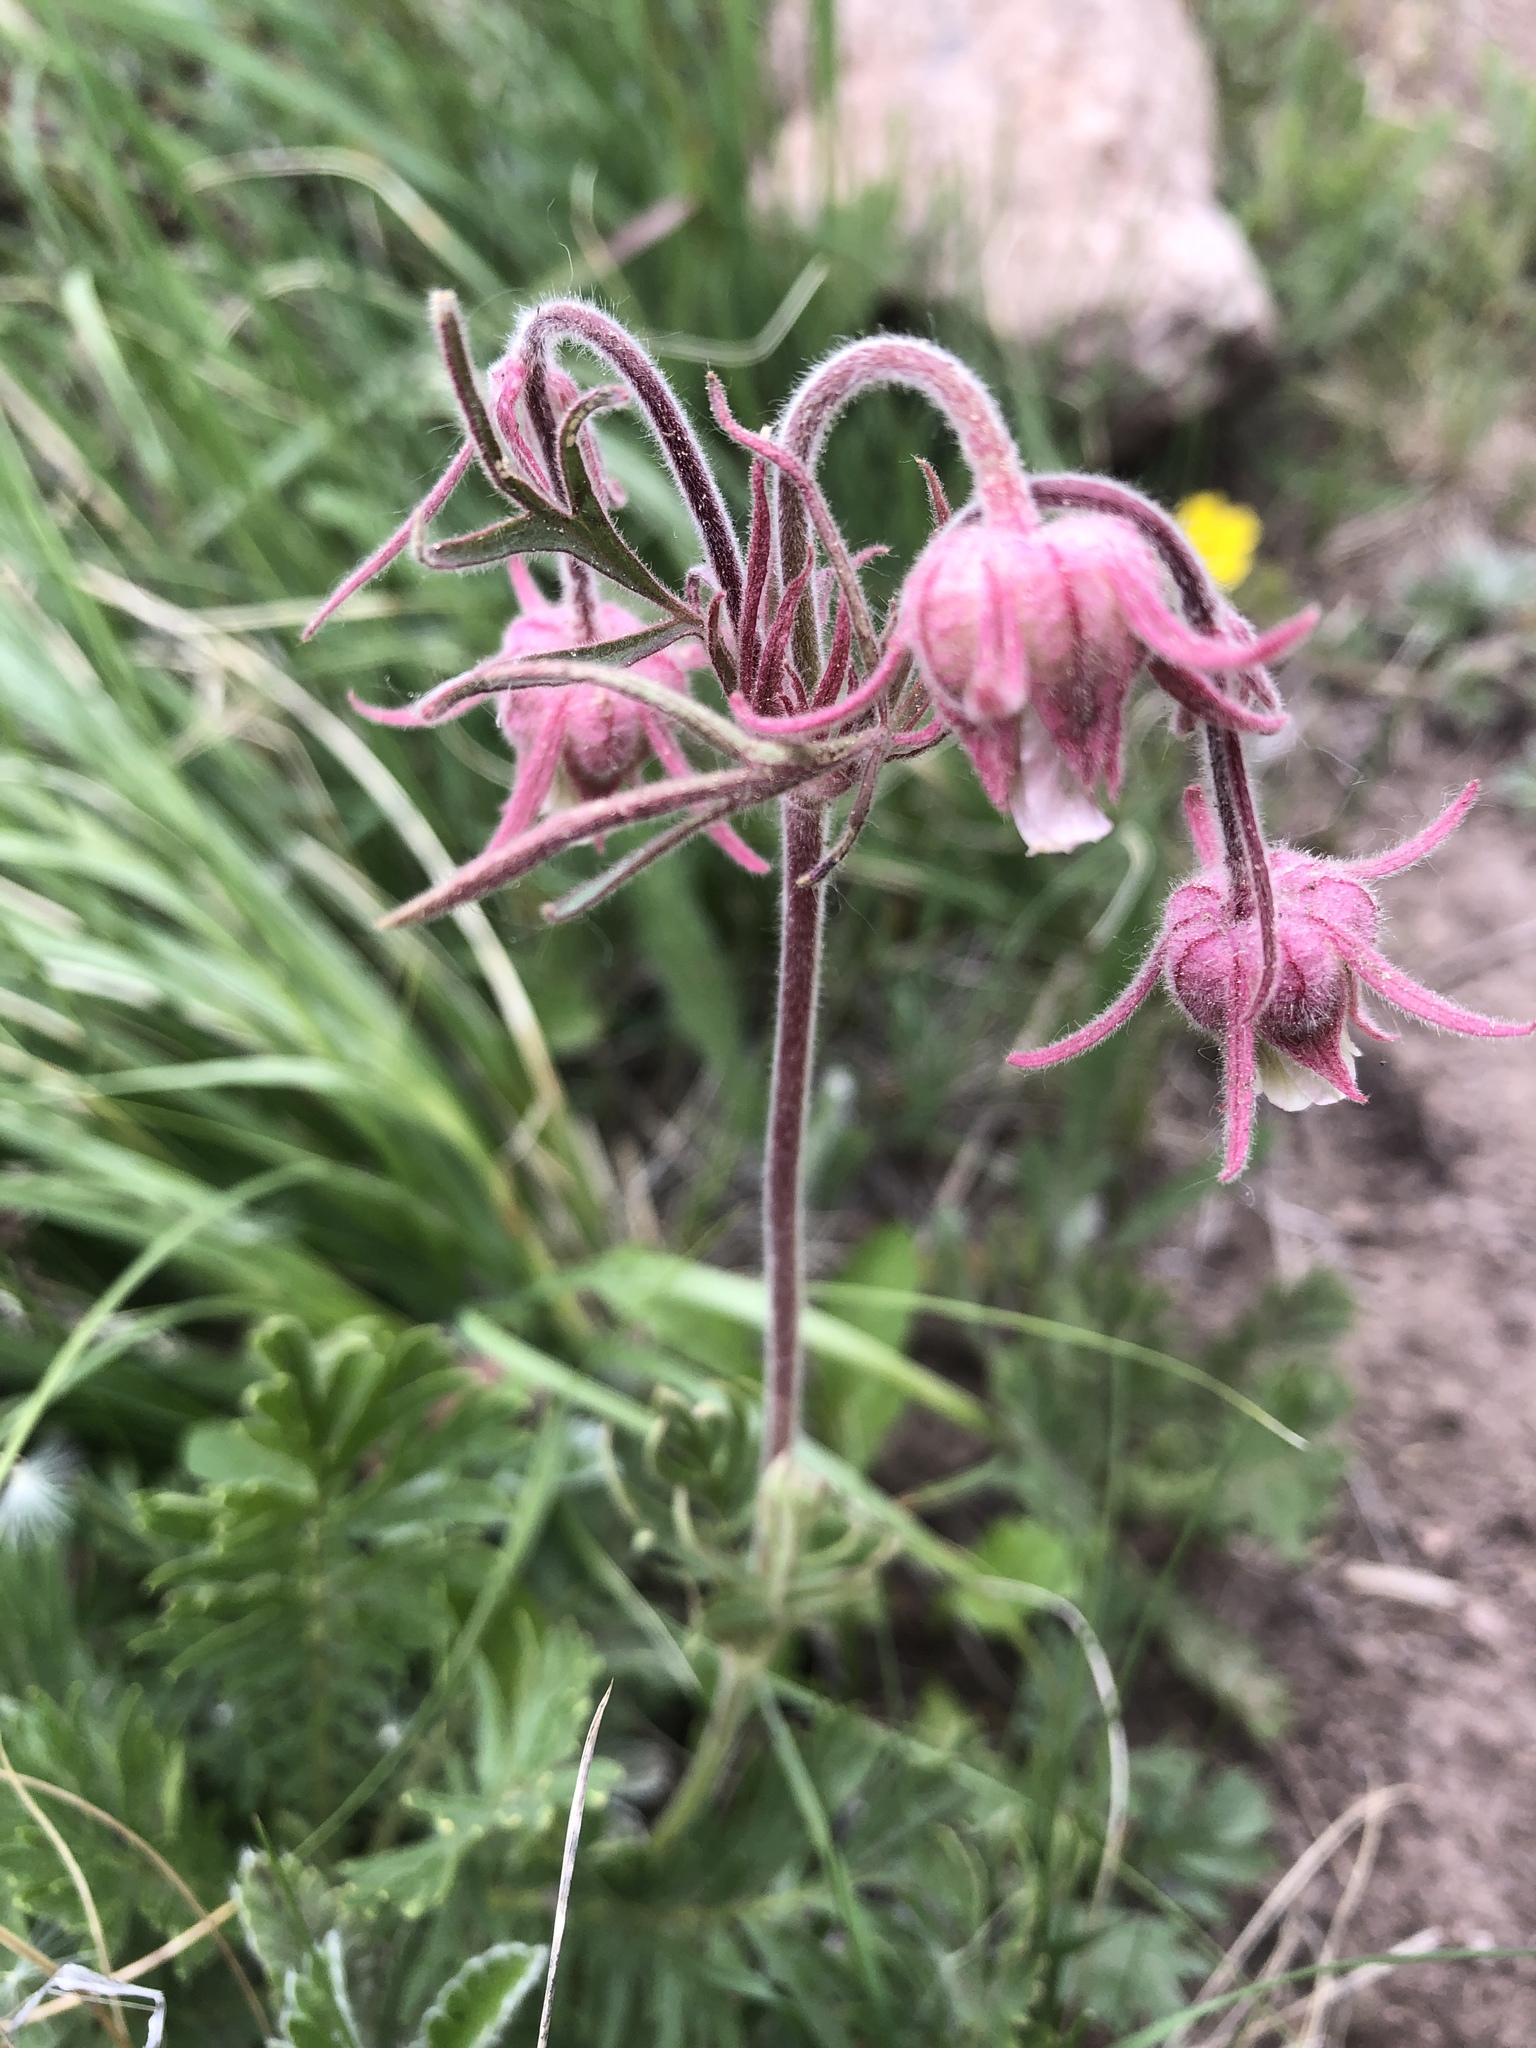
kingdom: Plantae
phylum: Tracheophyta
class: Magnoliopsida
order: Rosales
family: Rosaceae
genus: Geum
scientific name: Geum triflorum
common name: Old man's whiskers
